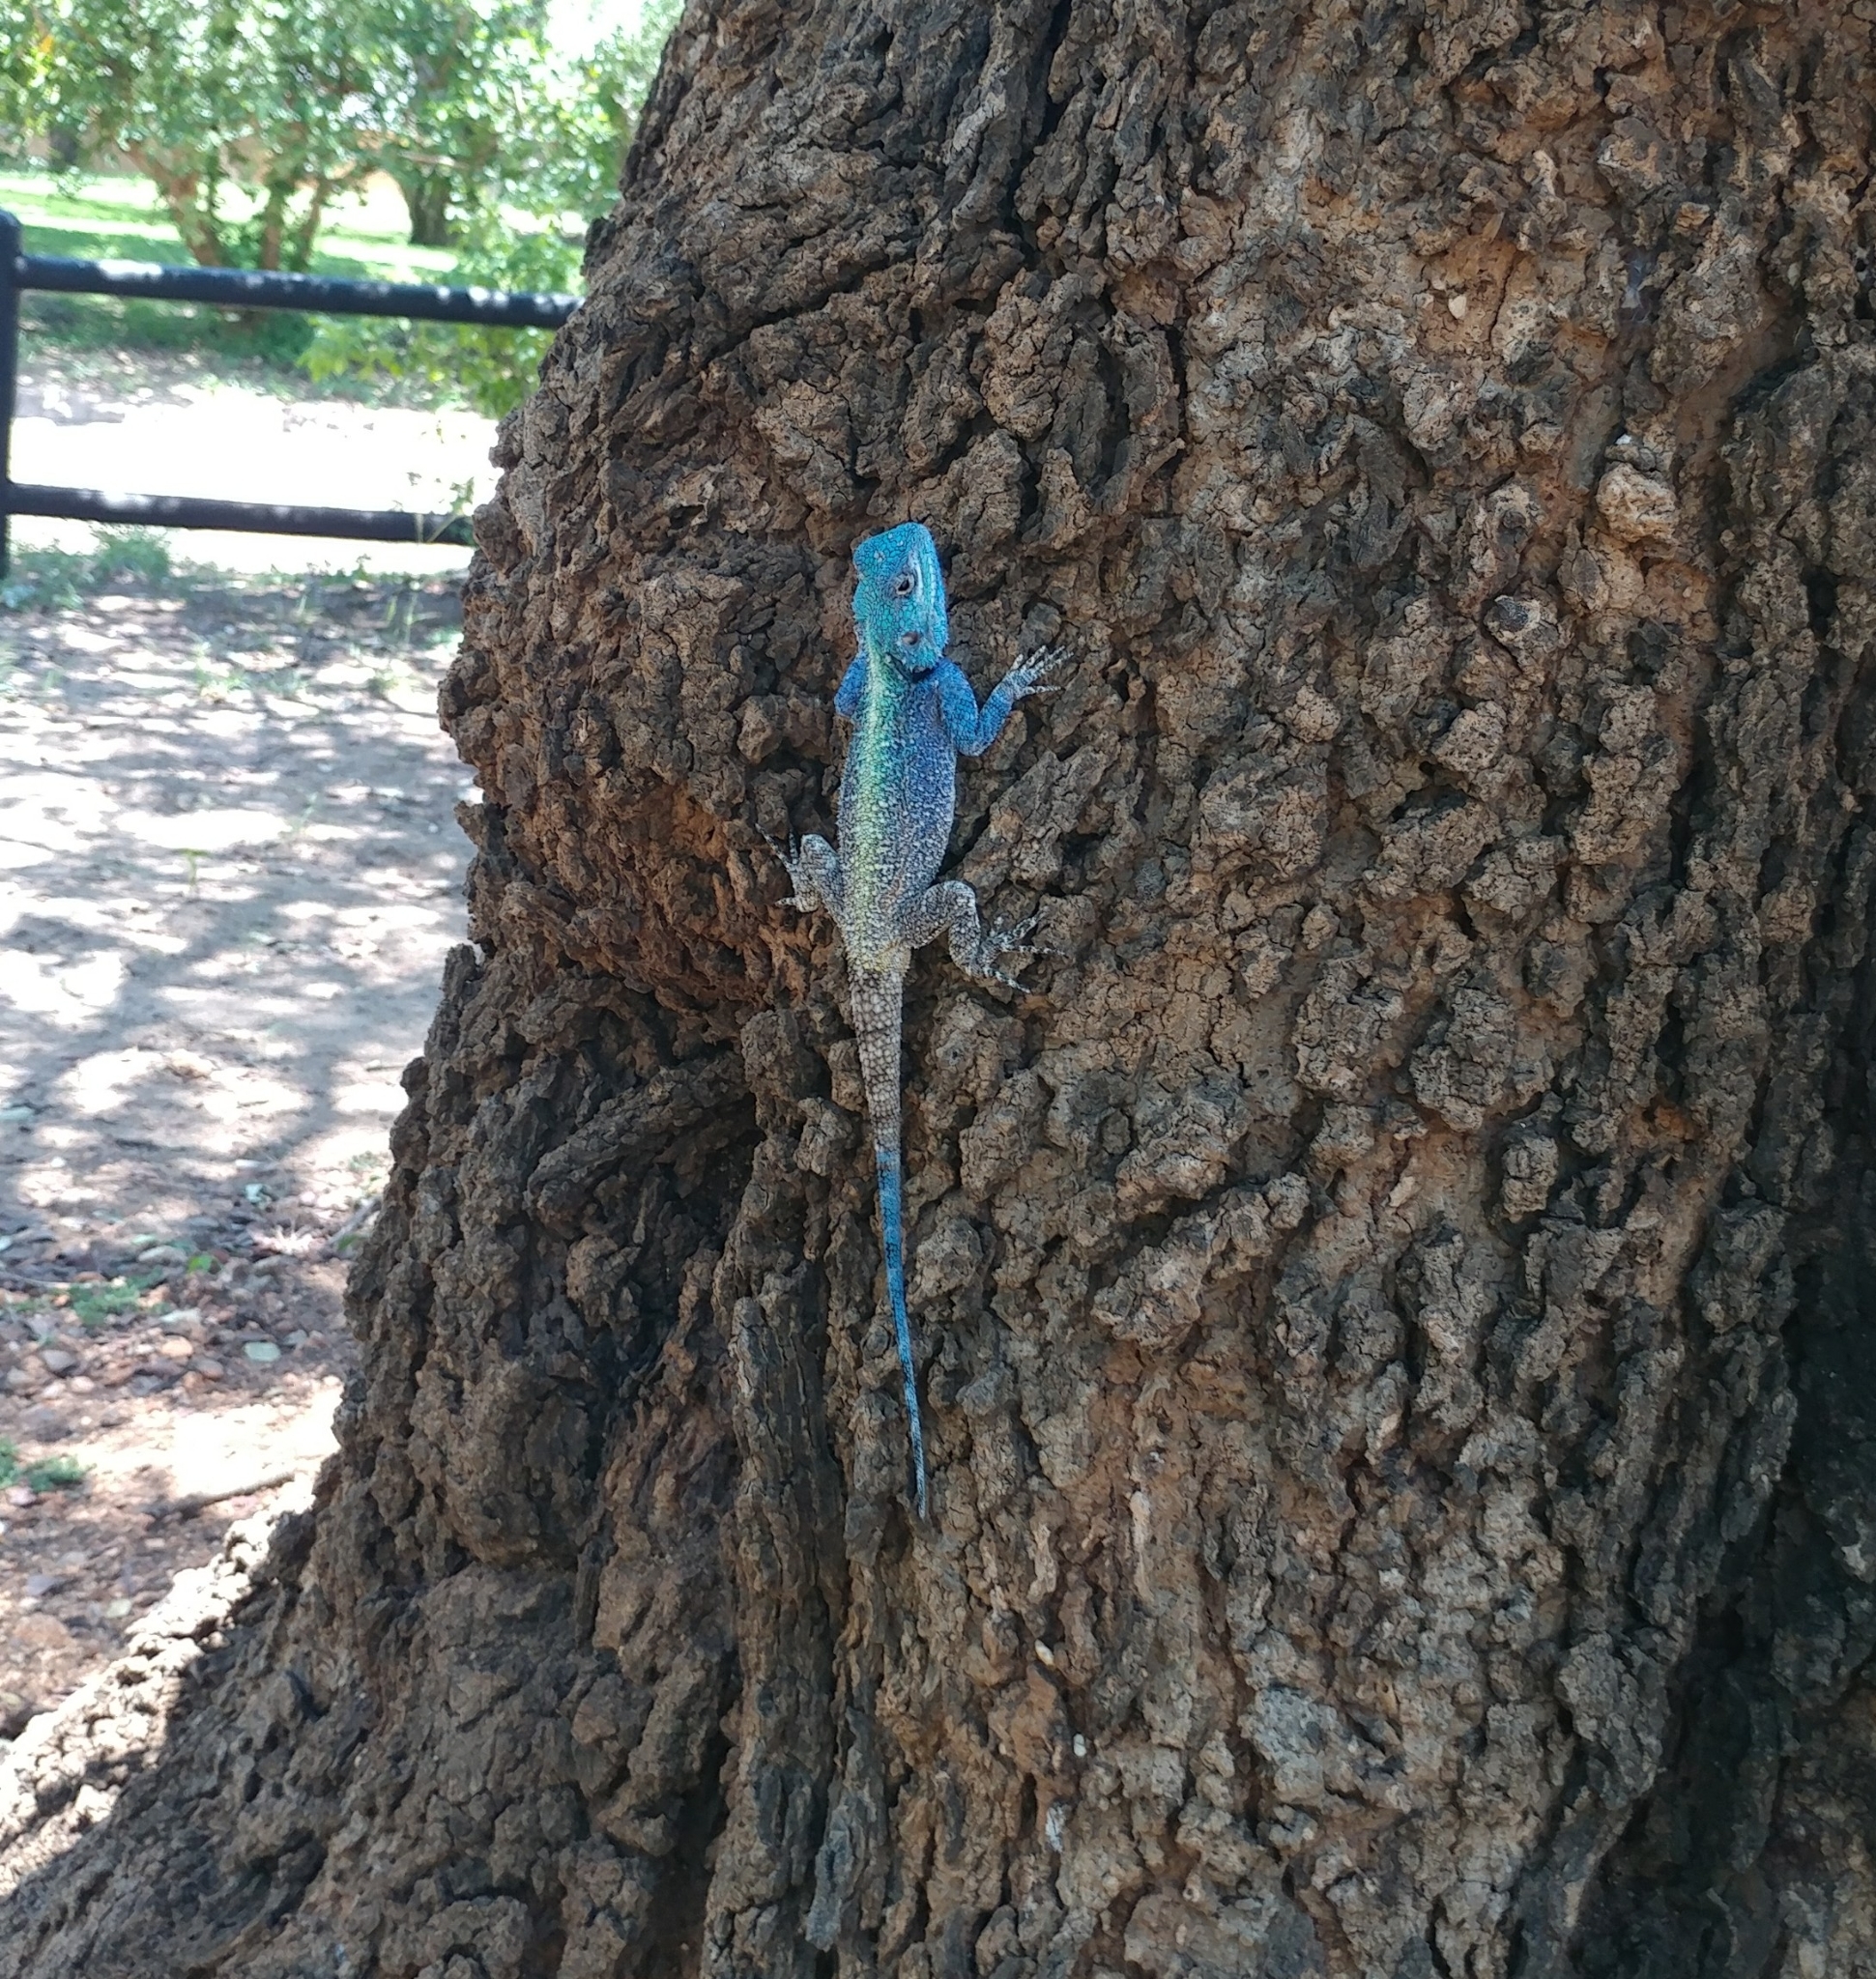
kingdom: Animalia
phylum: Chordata
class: Squamata
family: Agamidae
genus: Acanthocercus
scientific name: Acanthocercus atricollis
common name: Southern tree agama
